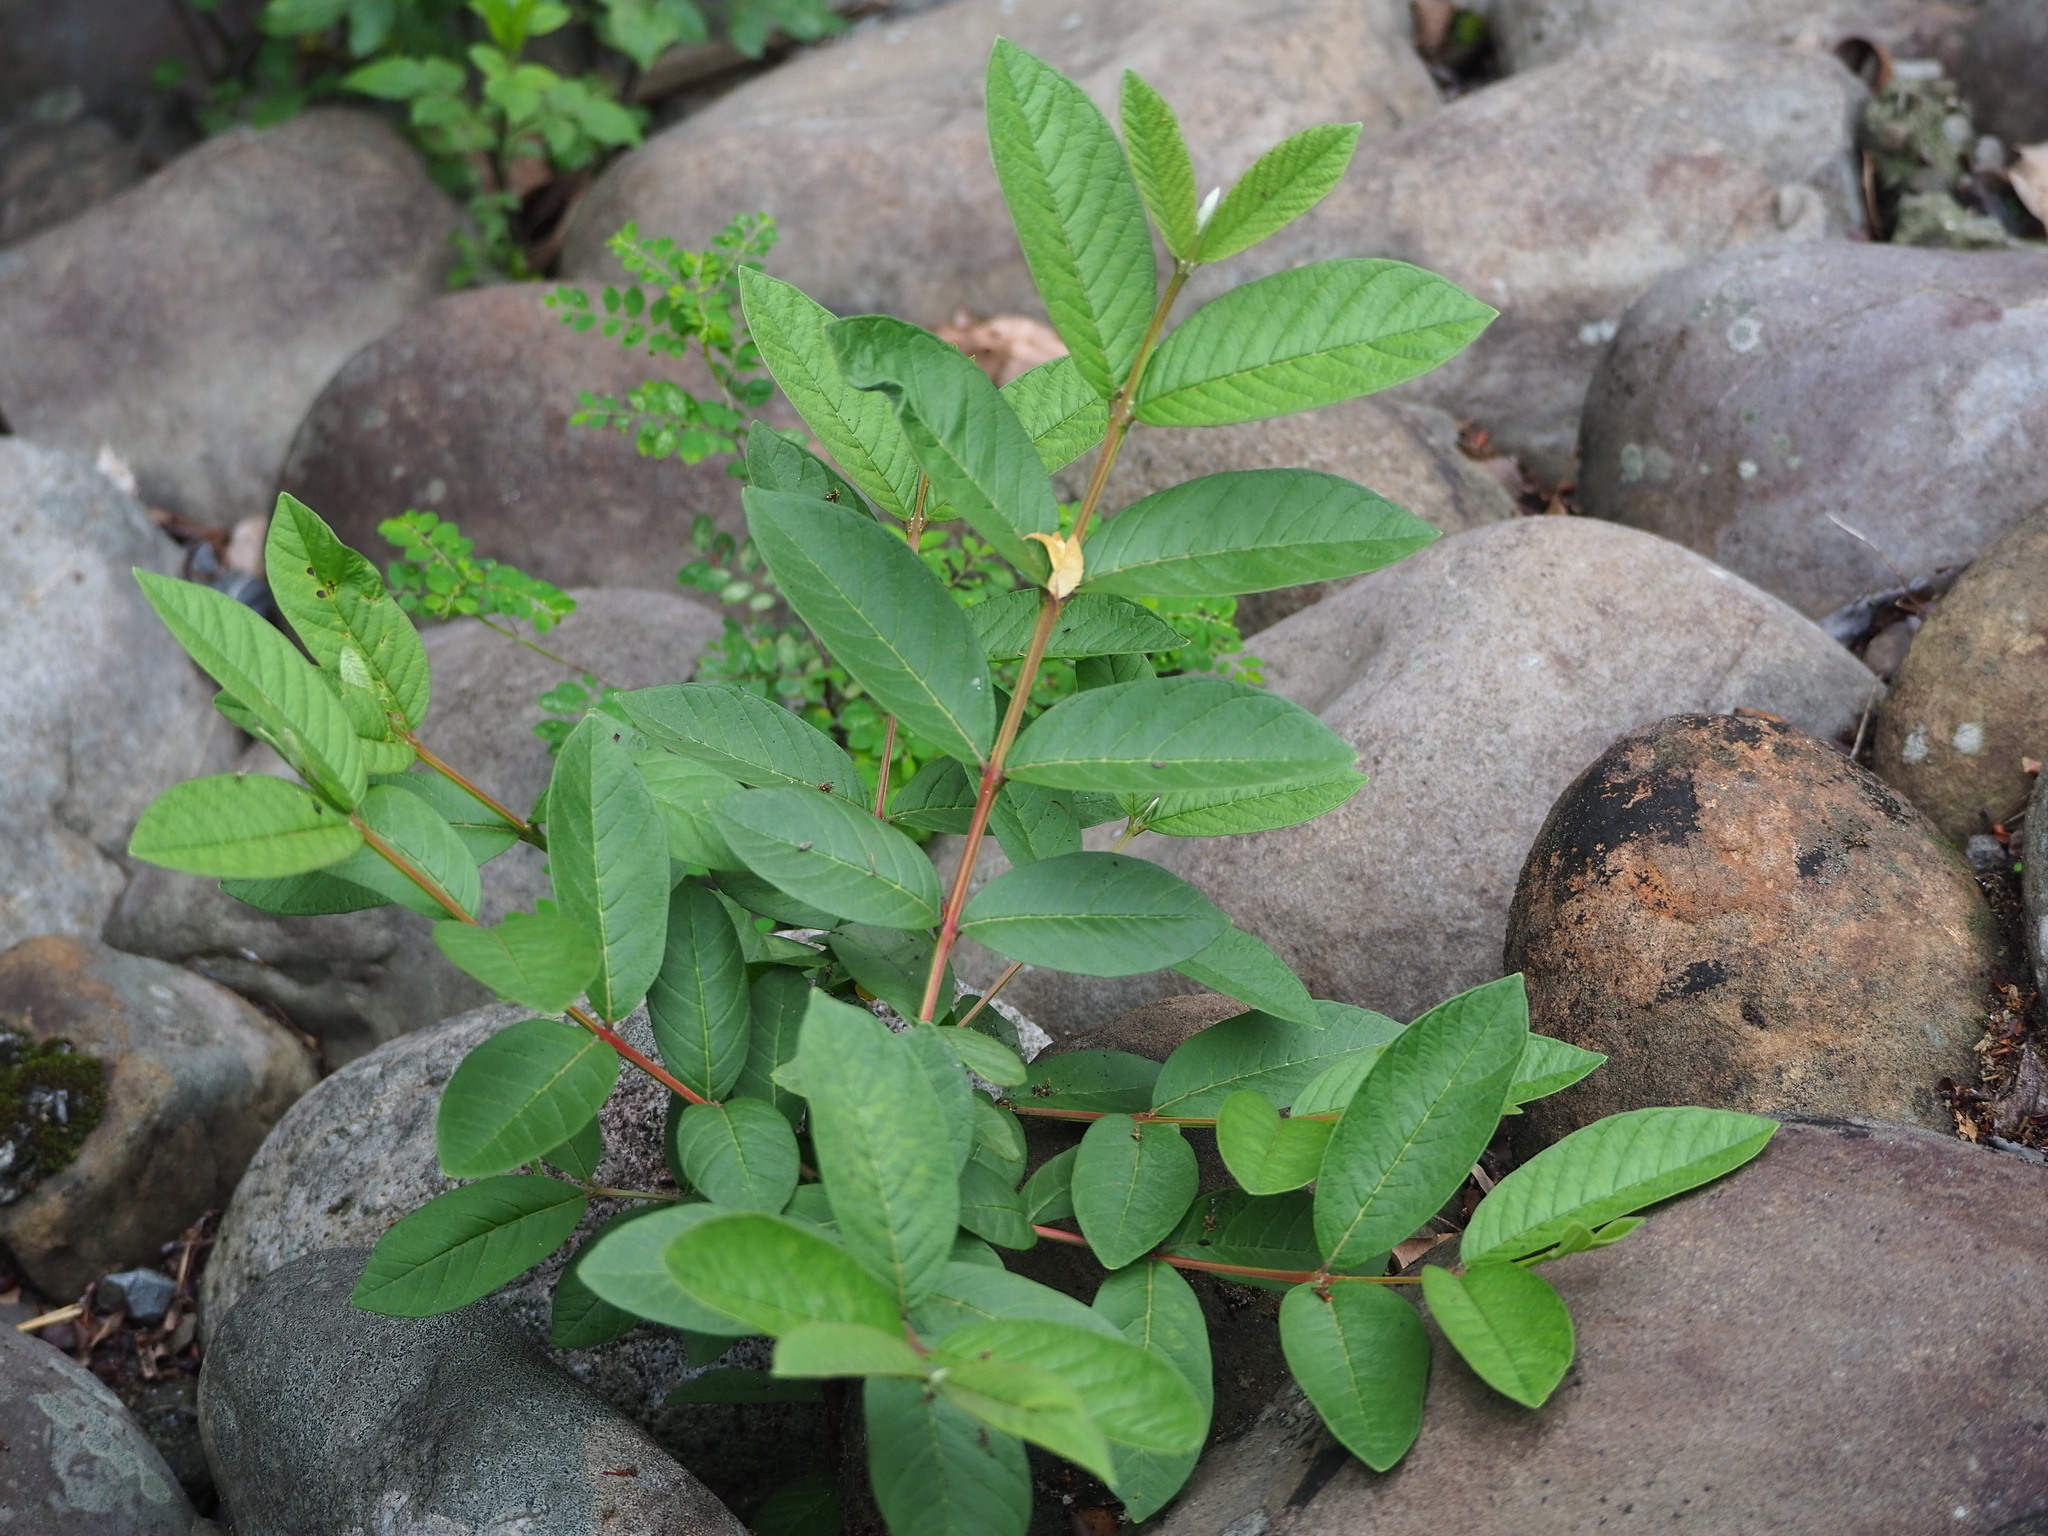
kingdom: Plantae
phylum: Tracheophyta
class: Magnoliopsida
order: Myrtales
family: Myrtaceae
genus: Psidium
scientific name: Psidium guajava
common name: Guava
